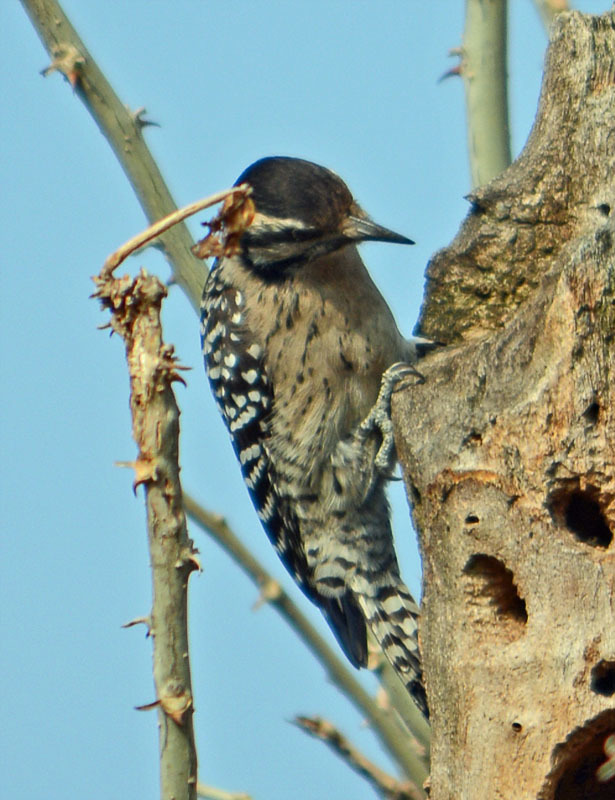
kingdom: Animalia
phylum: Chordata
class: Aves
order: Piciformes
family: Picidae
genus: Dryobates
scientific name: Dryobates scalaris
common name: Ladder-backed woodpecker
